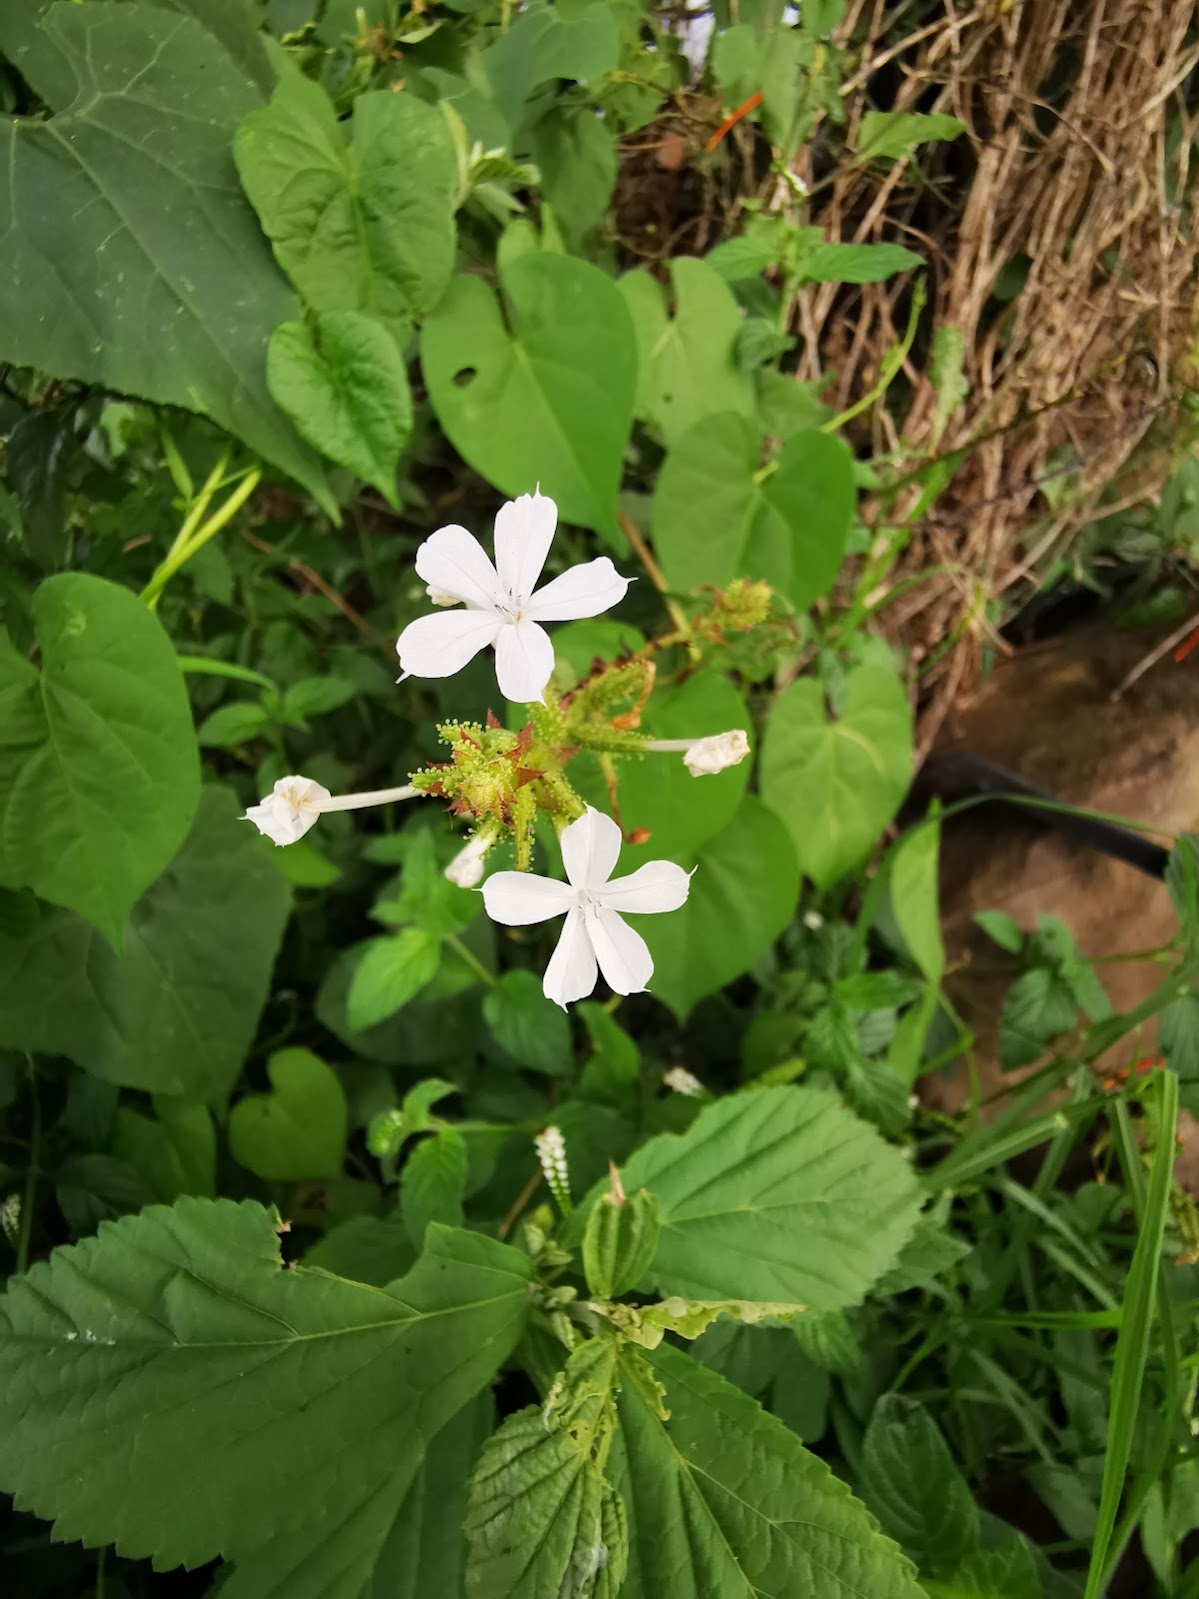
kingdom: Plantae
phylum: Tracheophyta
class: Magnoliopsida
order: Caryophyllales
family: Plumbaginaceae
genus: Plumbago
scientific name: Plumbago zeylanica
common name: Doctorbush
